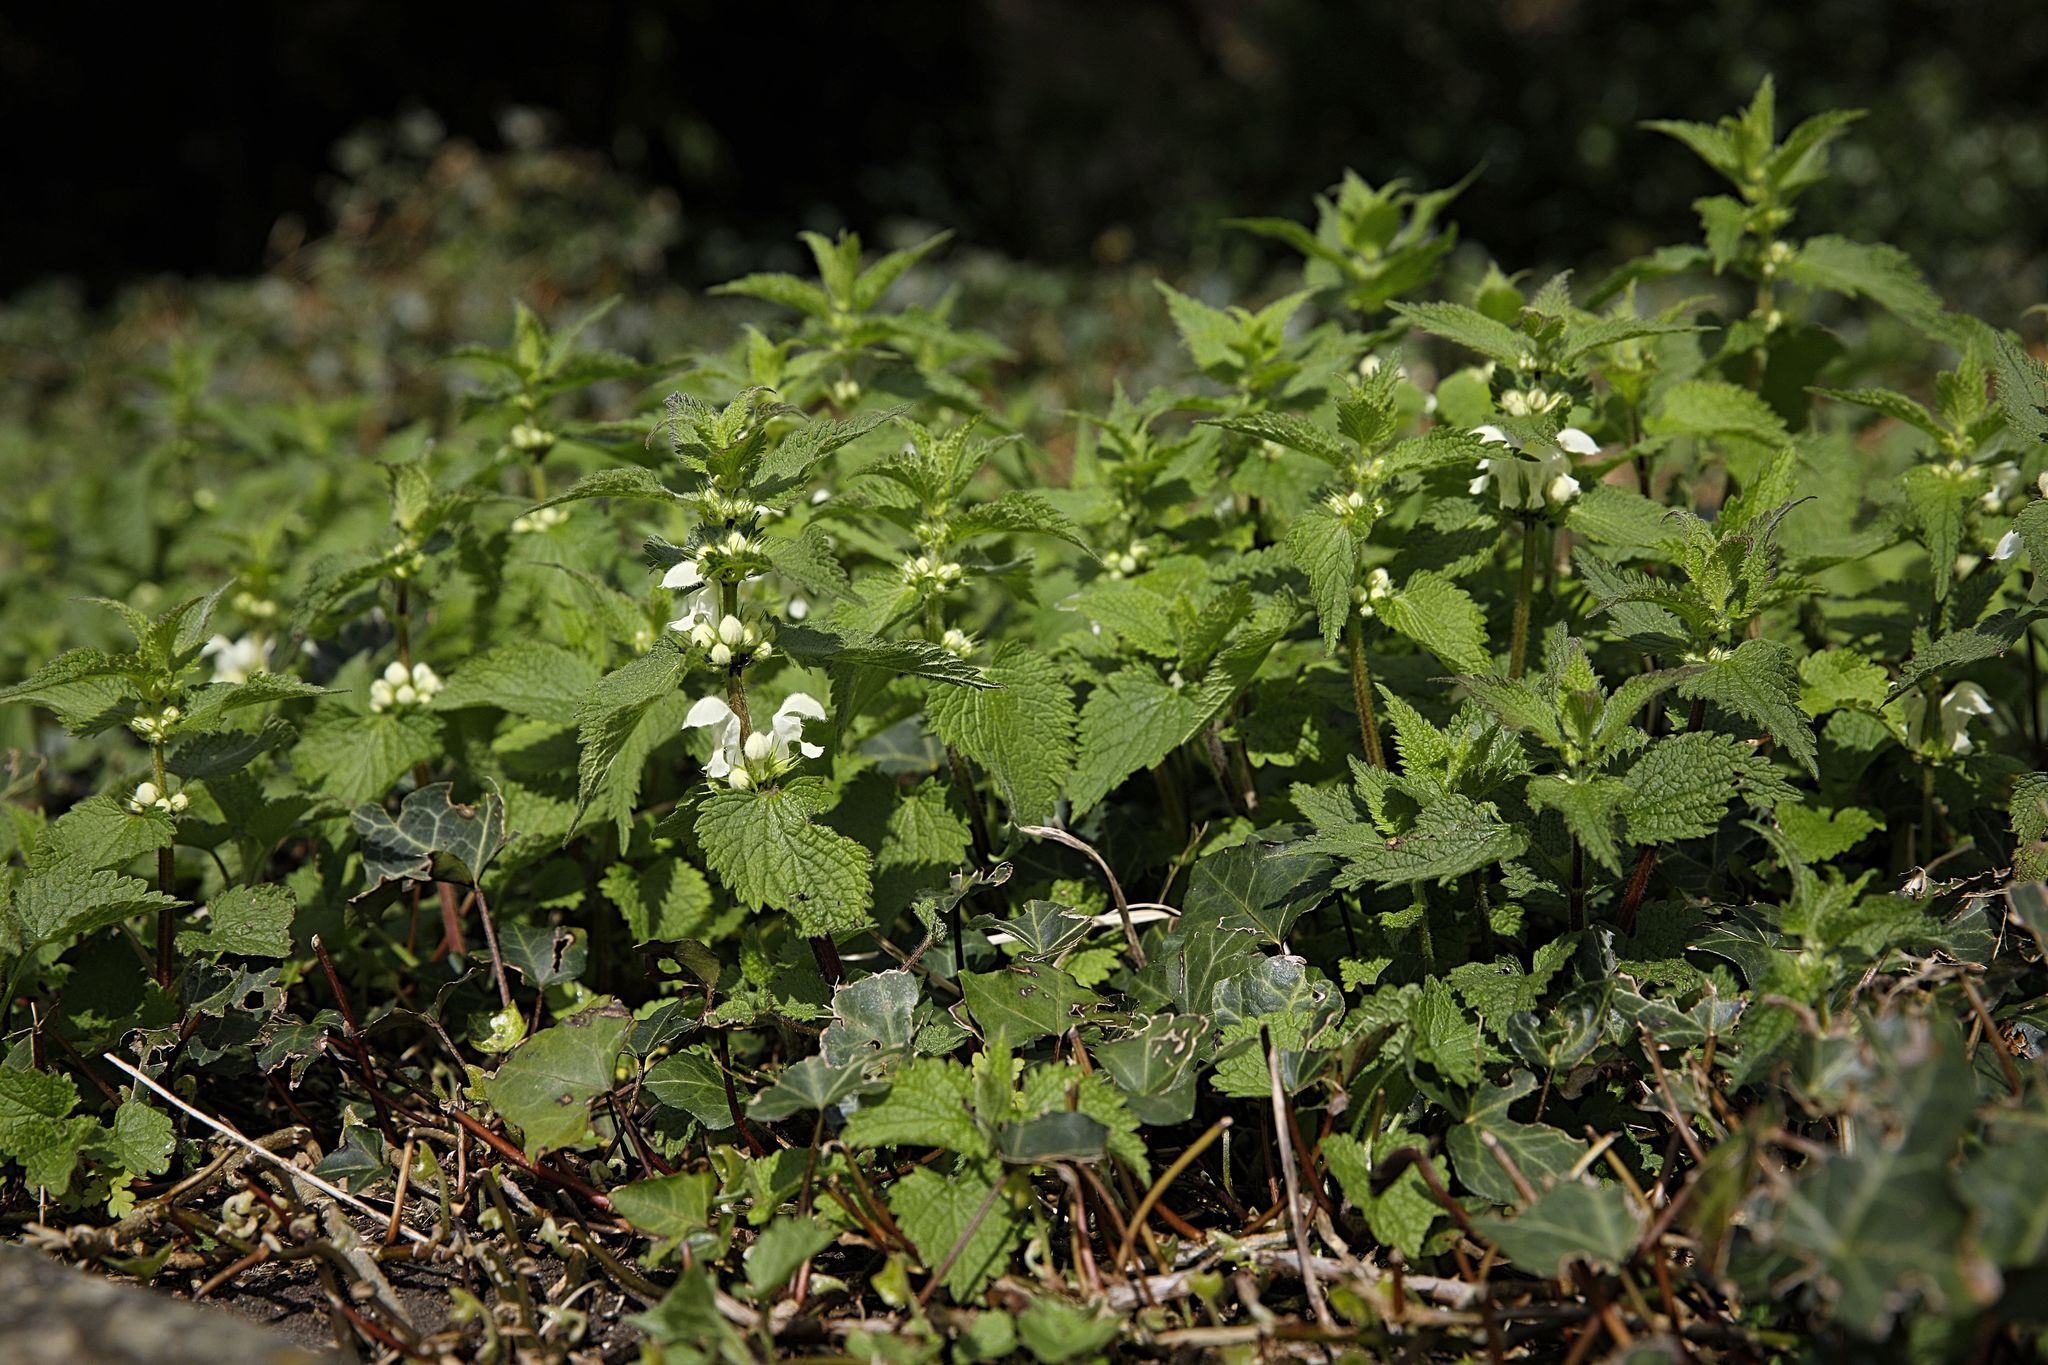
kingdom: Plantae
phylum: Tracheophyta
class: Magnoliopsida
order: Lamiales
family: Lamiaceae
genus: Lamium
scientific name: Lamium album
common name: White dead-nettle
